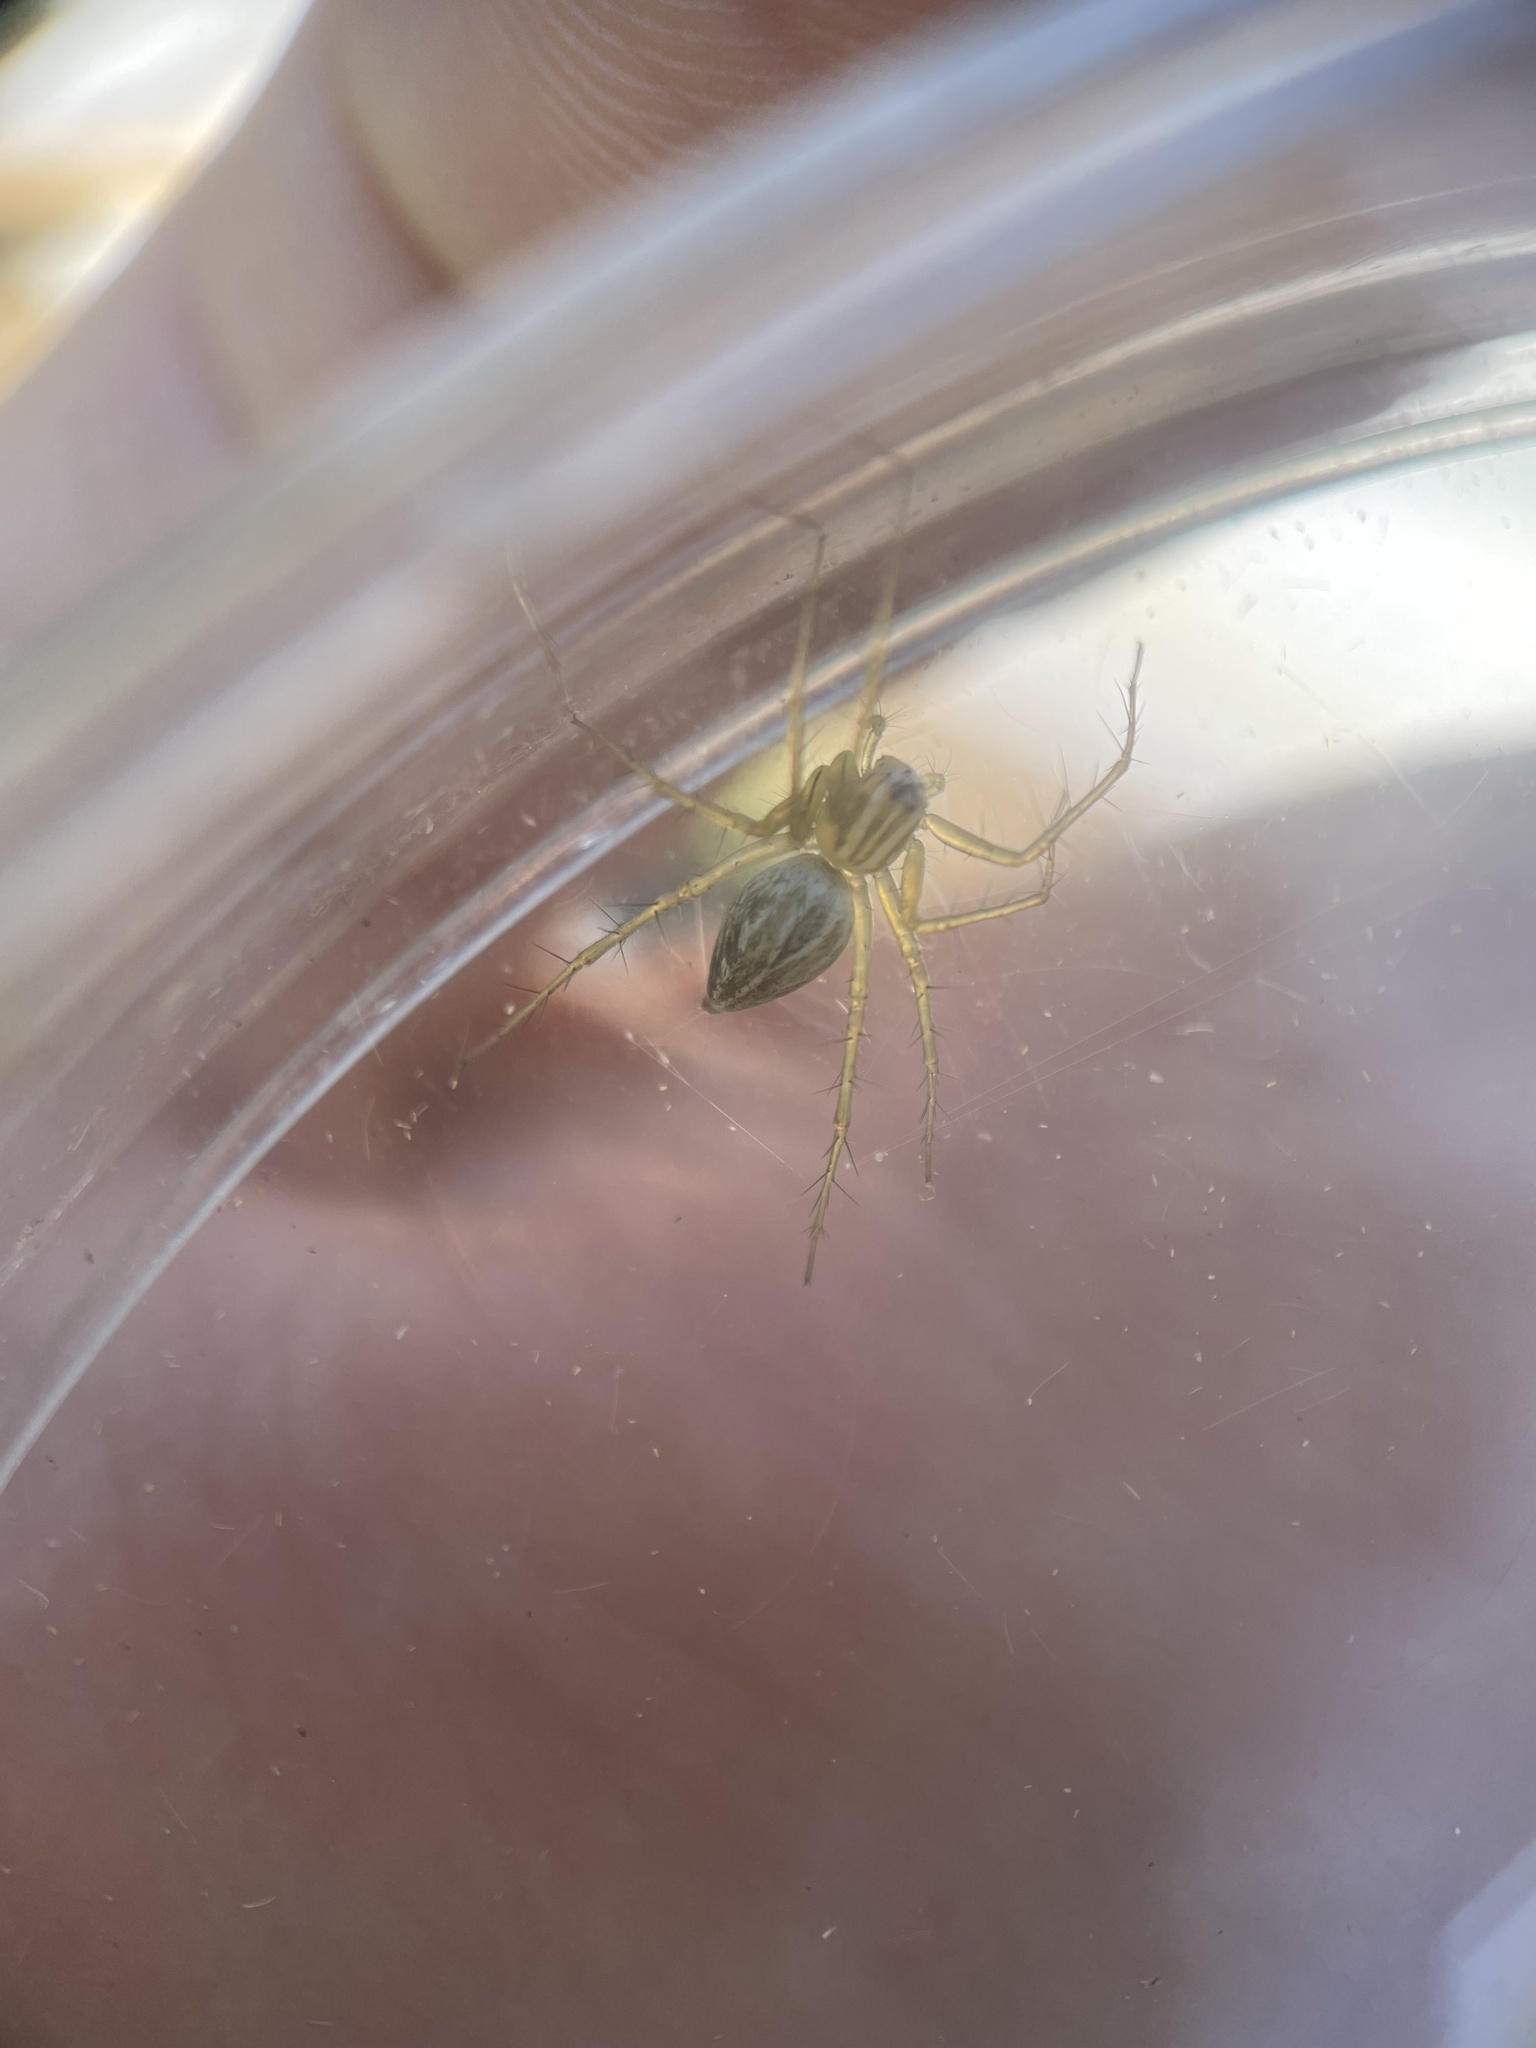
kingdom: Animalia
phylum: Arthropoda
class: Arachnida
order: Araneae
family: Oxyopidae
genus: Oxyopes
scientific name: Oxyopes salticus
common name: Lynx spiders
